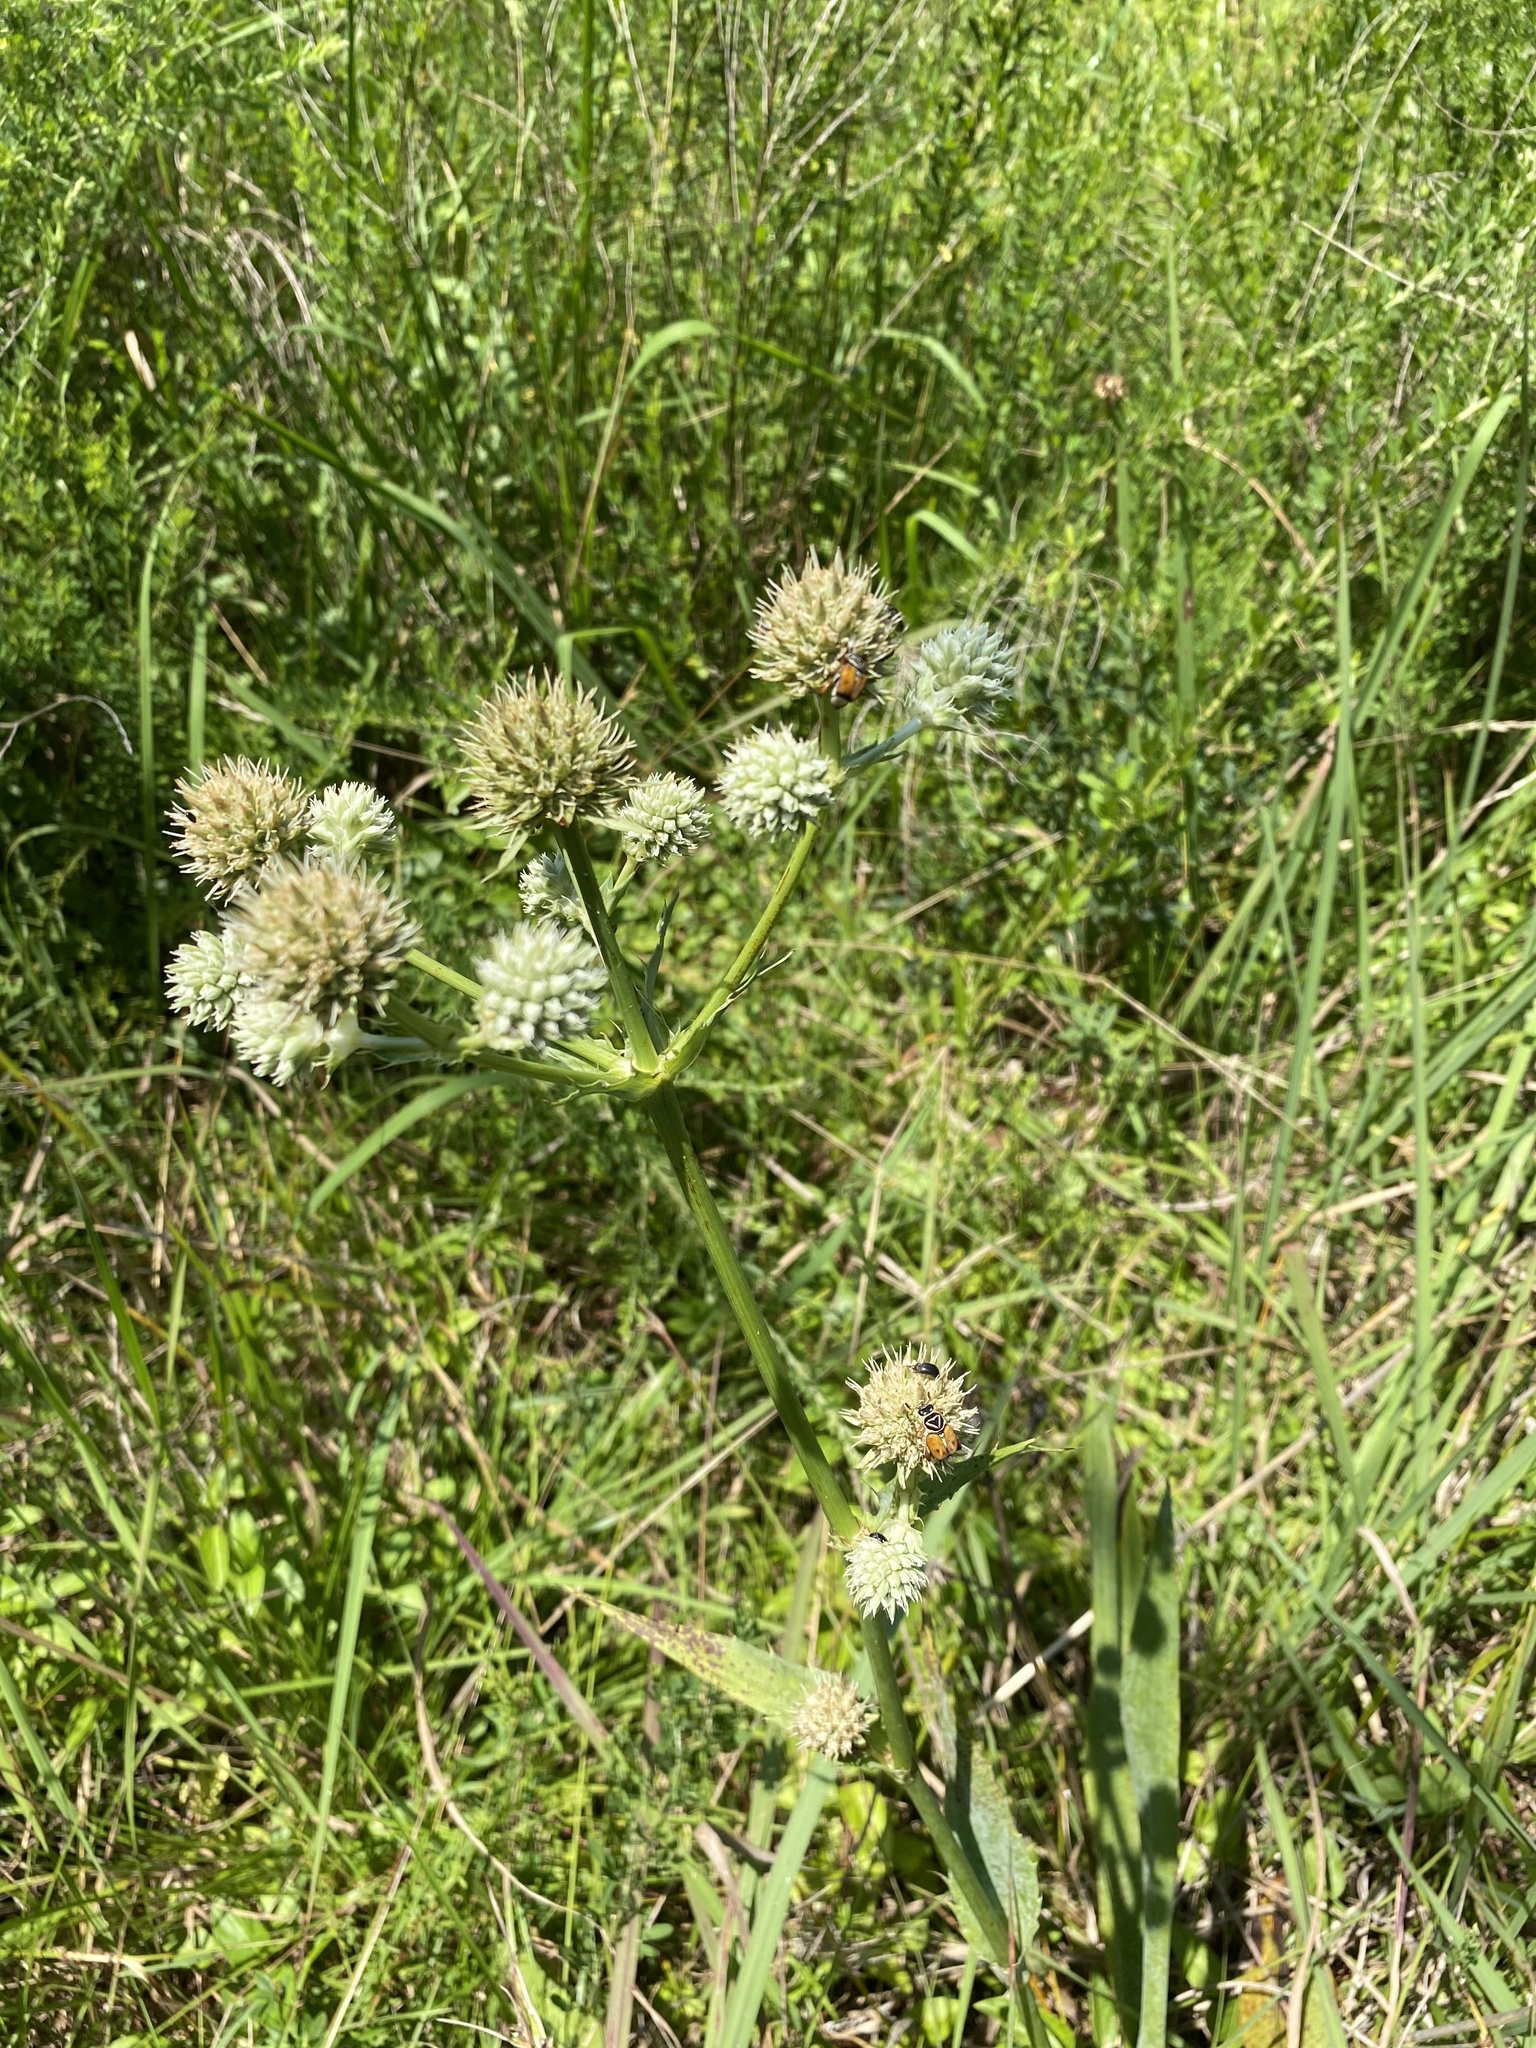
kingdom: Plantae
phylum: Tracheophyta
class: Magnoliopsida
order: Apiales
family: Apiaceae
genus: Eryngium
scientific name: Eryngium yuccifolium
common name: Button eryngo
